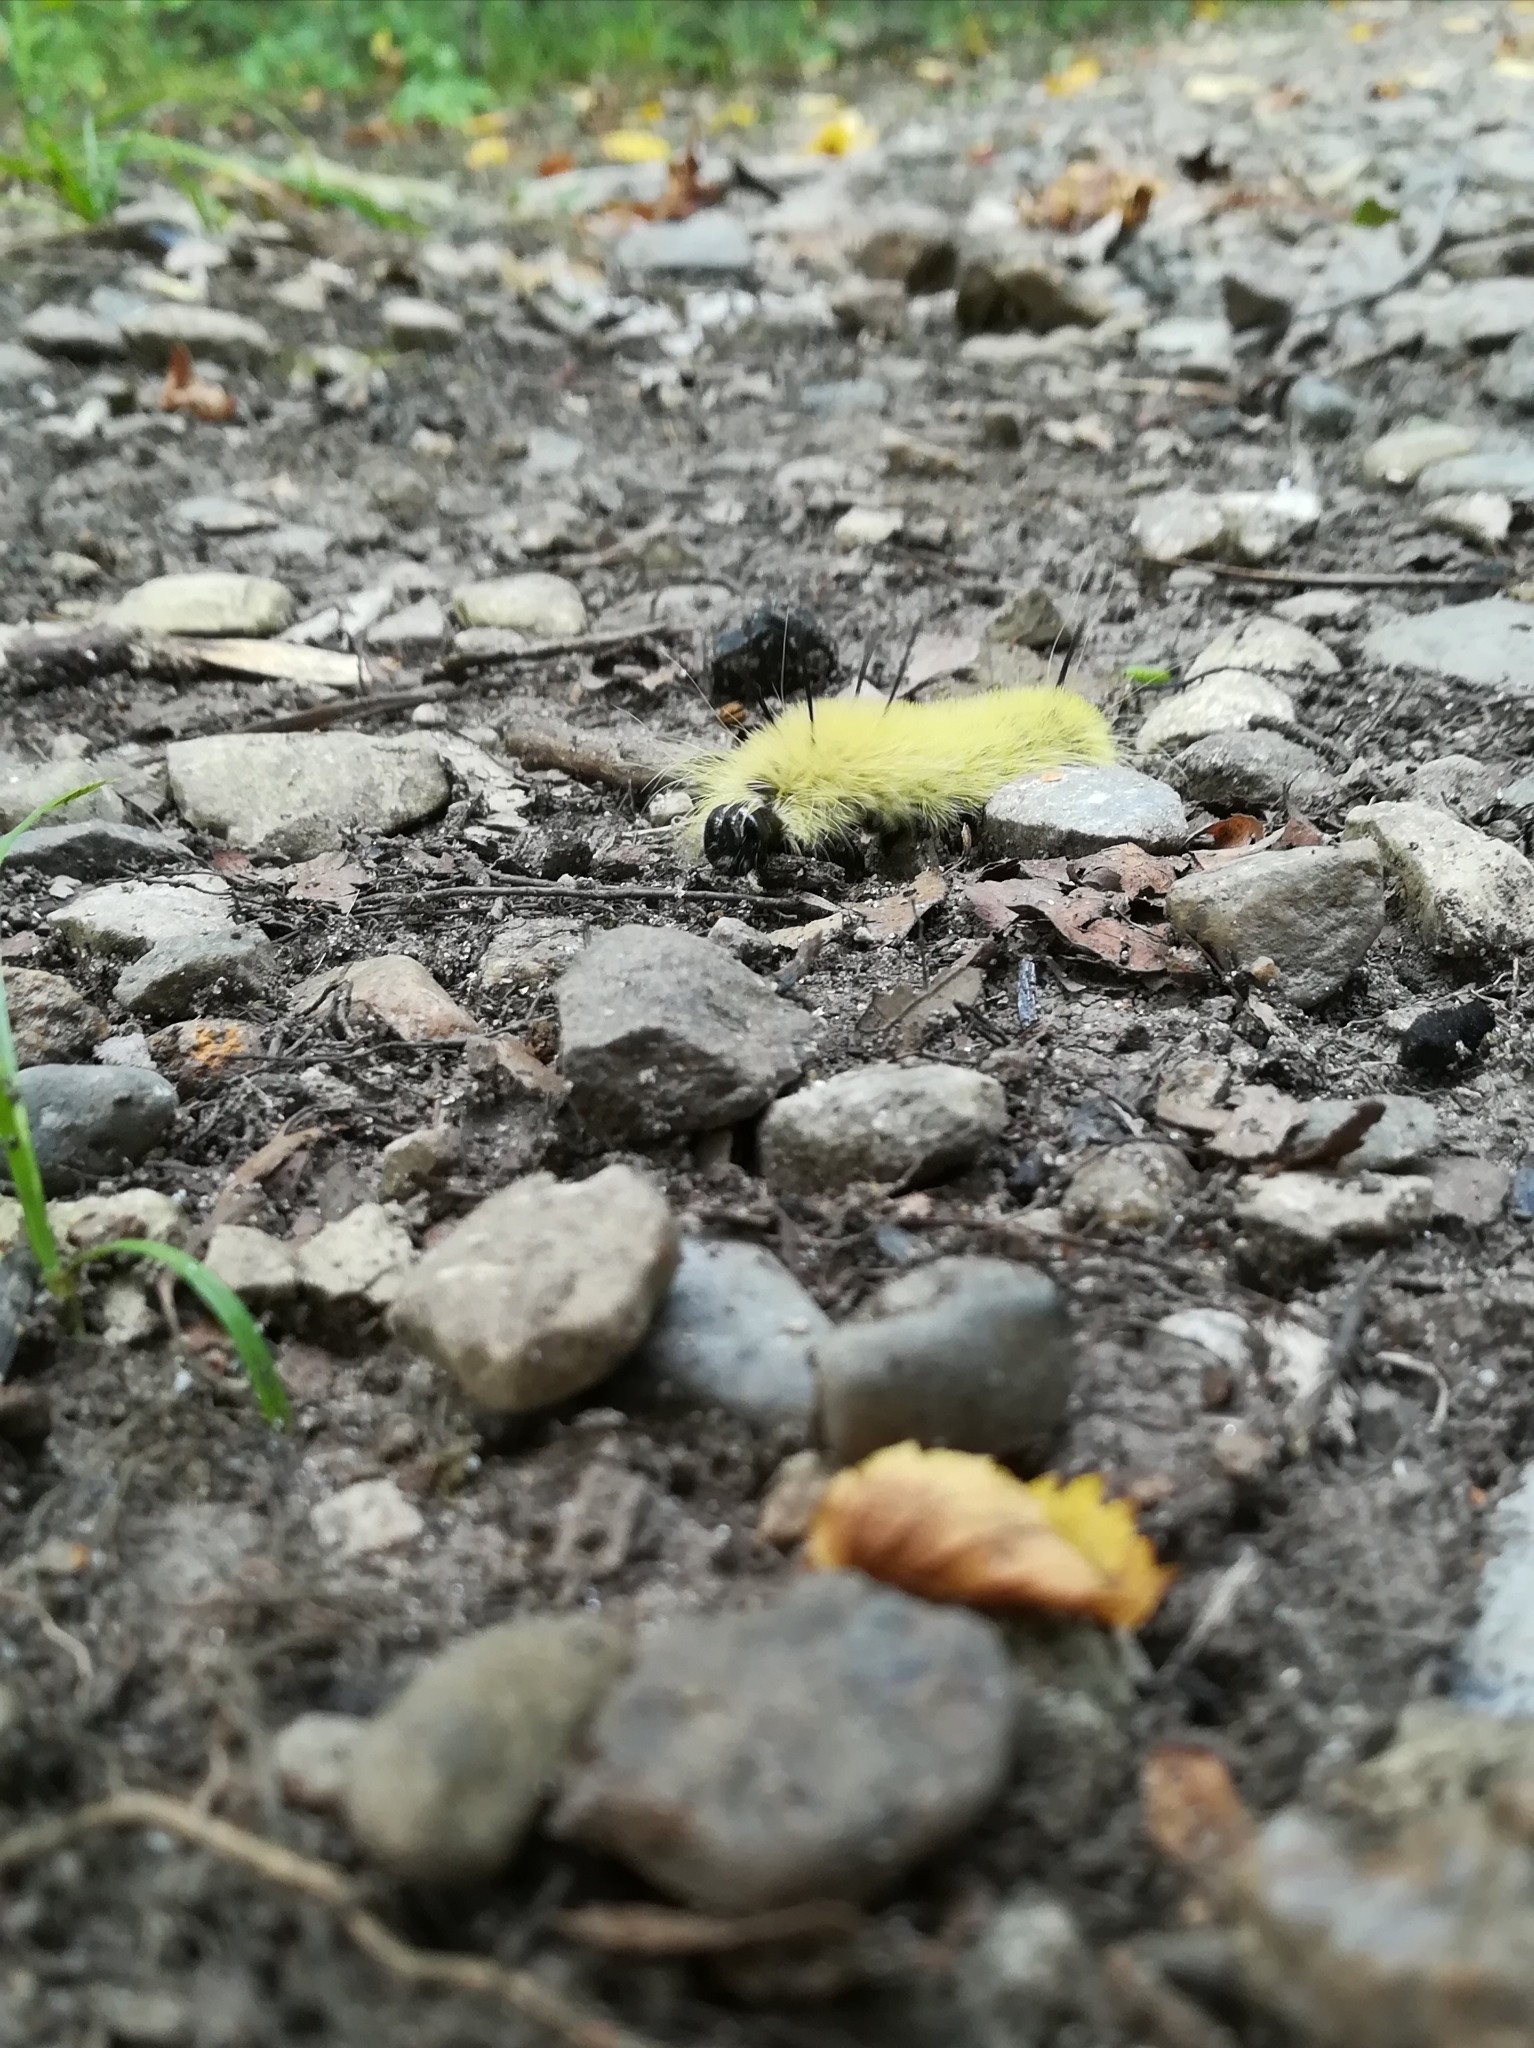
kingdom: Animalia
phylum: Arthropoda
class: Insecta
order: Lepidoptera
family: Noctuidae
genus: Acronicta
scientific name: Acronicta americana
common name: American dagger
